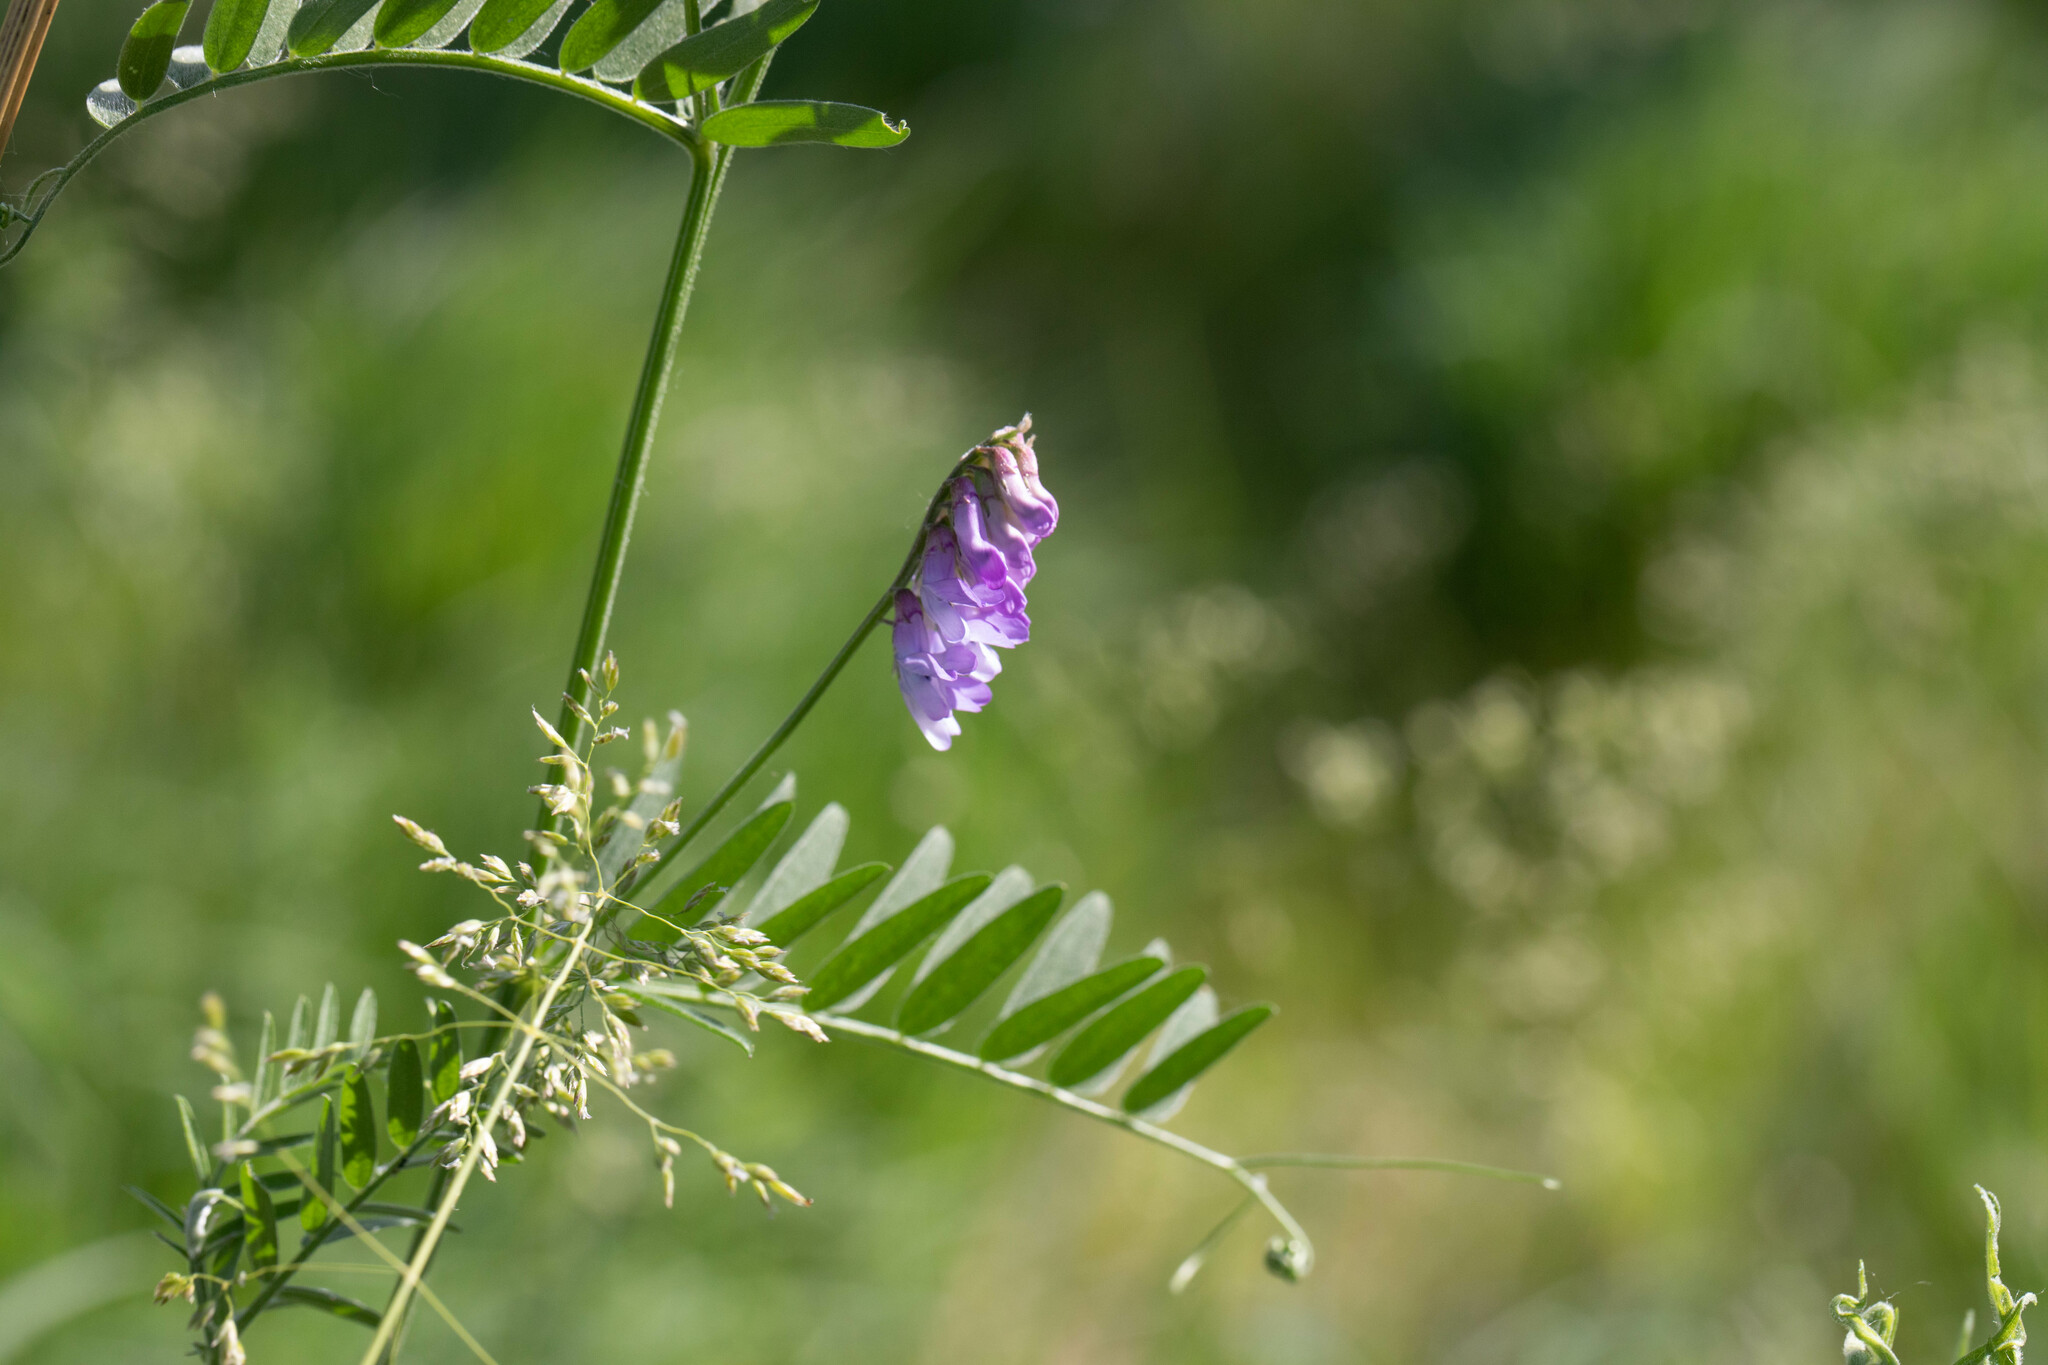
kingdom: Plantae
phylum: Tracheophyta
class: Magnoliopsida
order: Fabales
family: Fabaceae
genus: Vicia
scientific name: Vicia cracca
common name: Bird vetch
